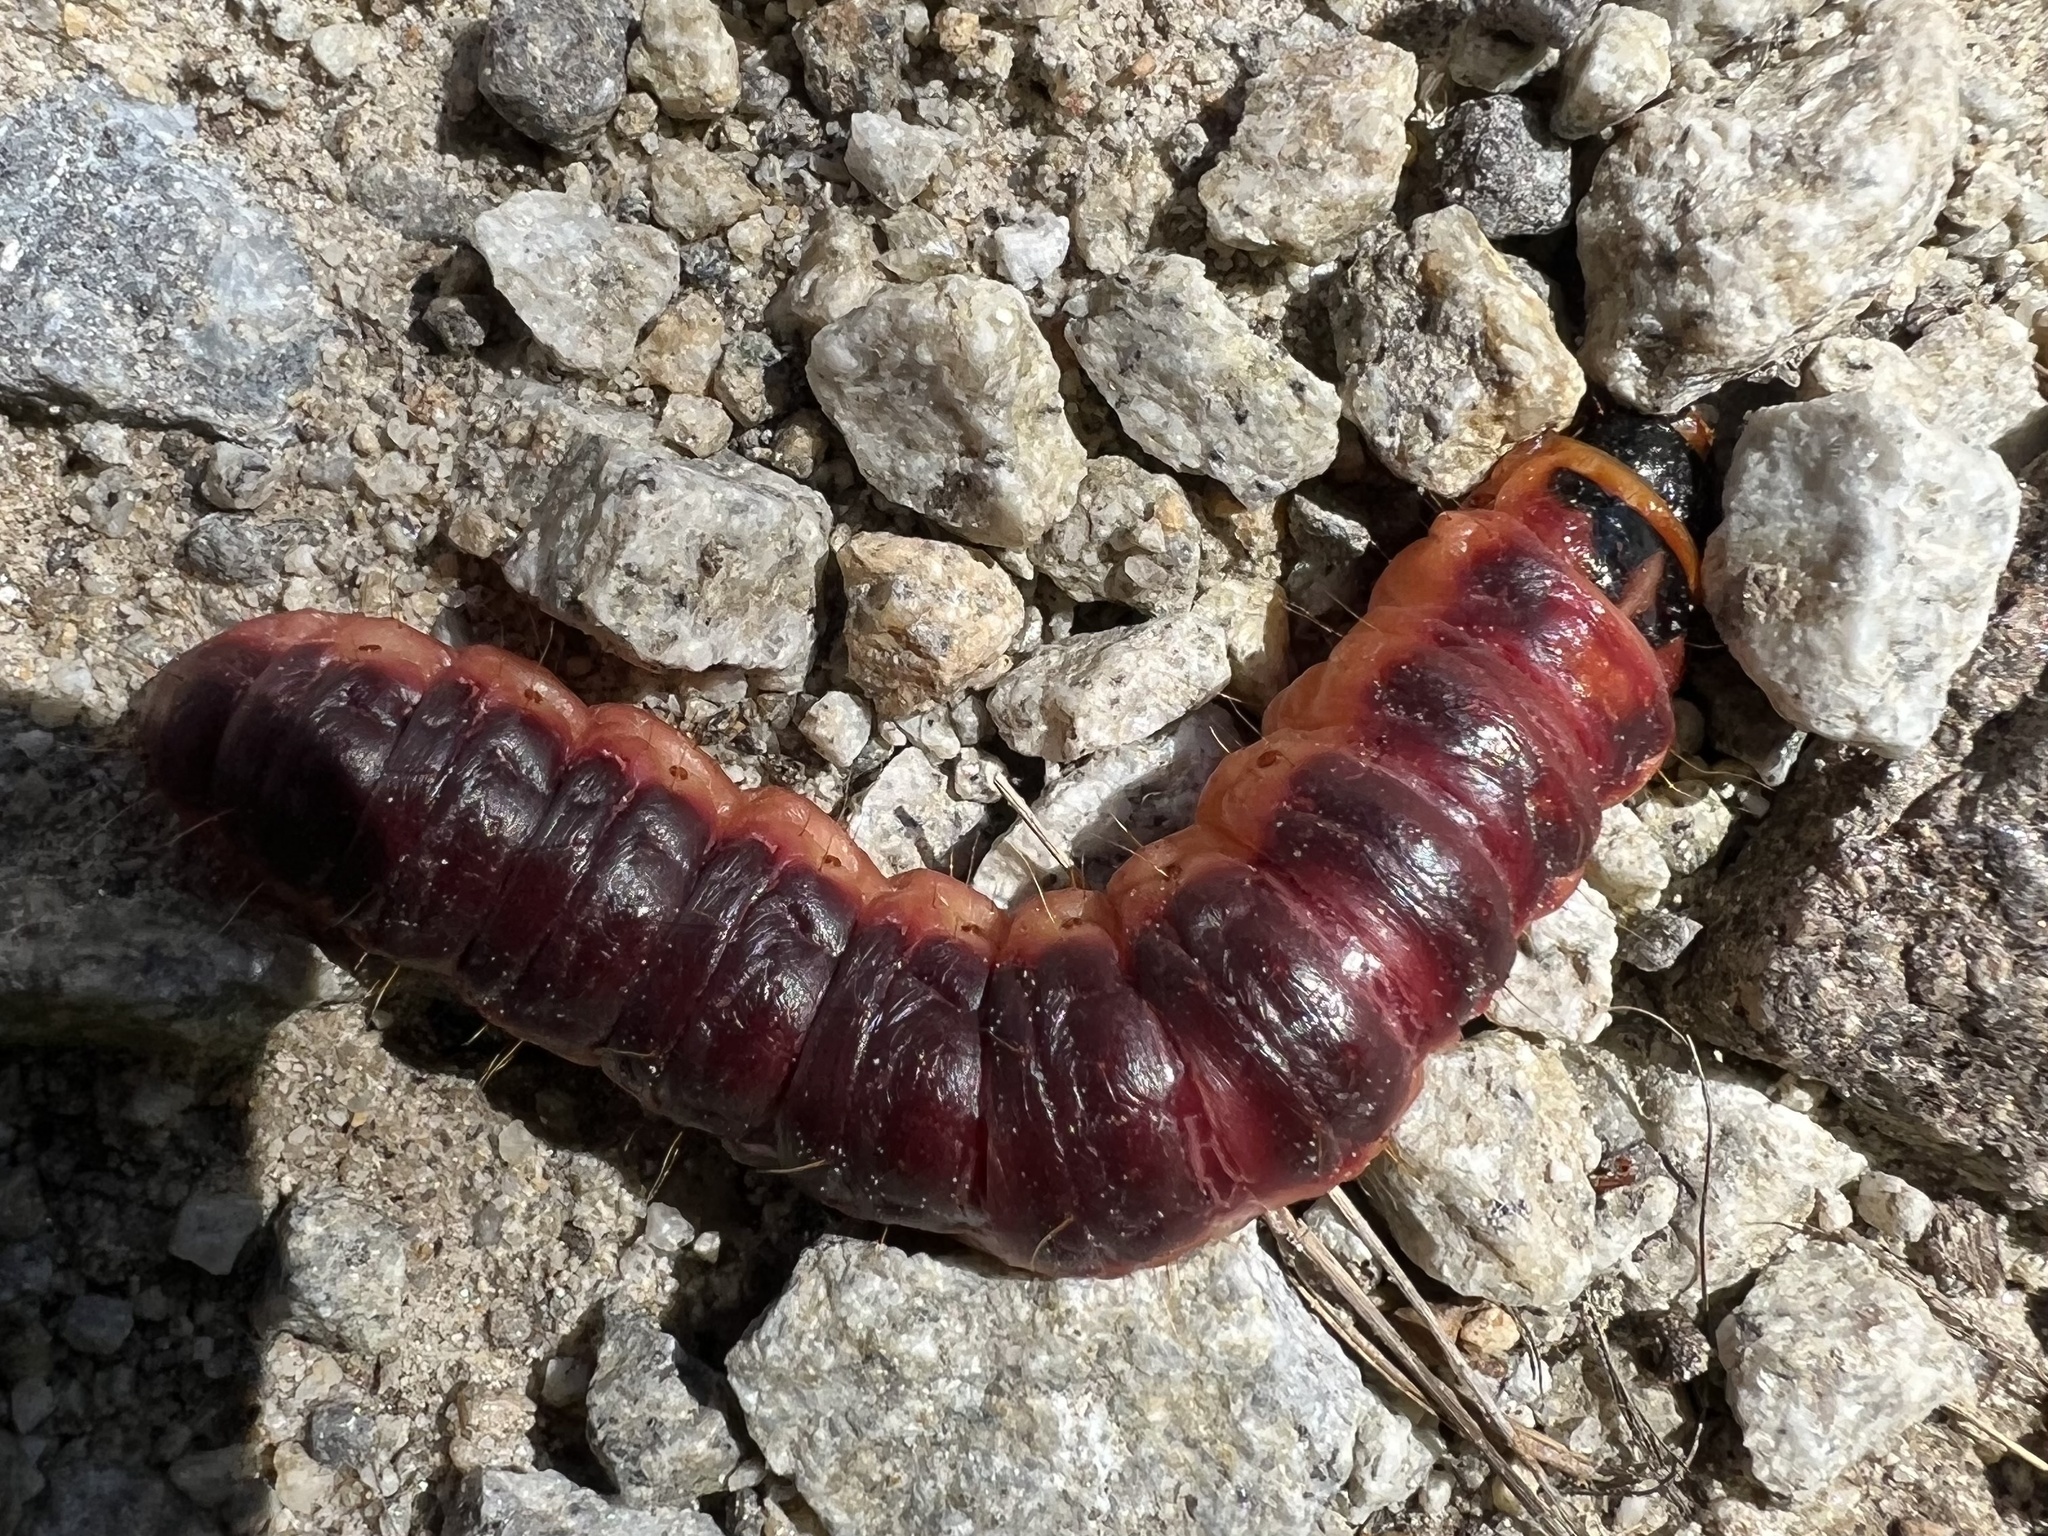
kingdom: Animalia
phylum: Arthropoda
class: Insecta
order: Lepidoptera
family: Cossidae
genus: Cossus
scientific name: Cossus cossus
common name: Goat moth
